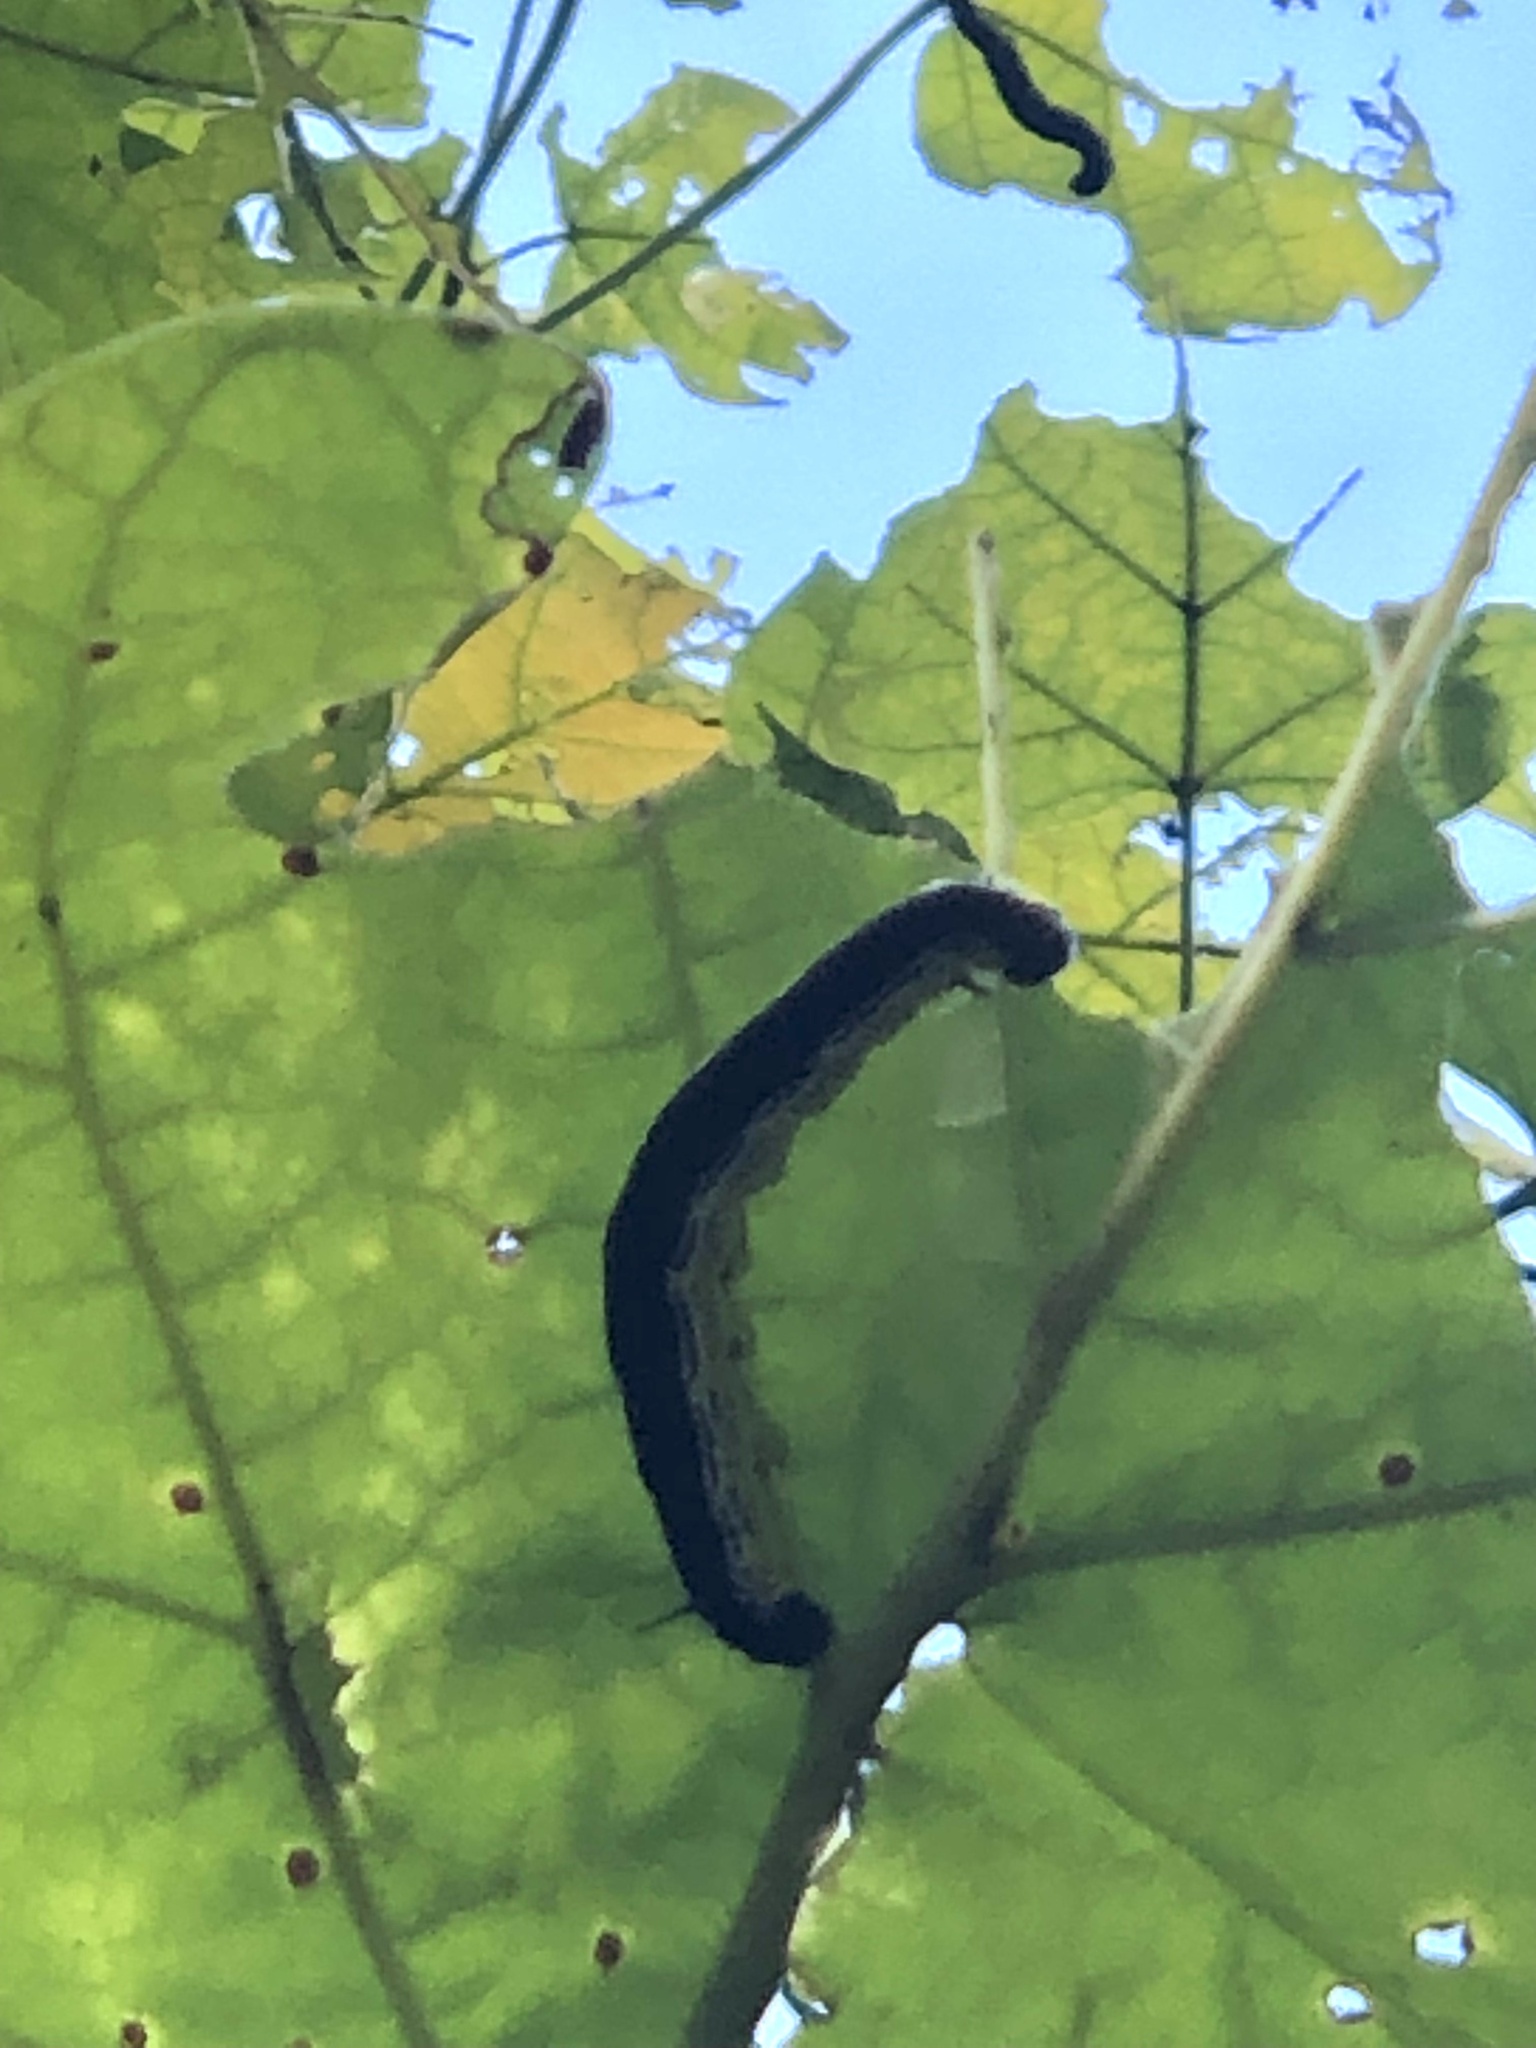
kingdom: Animalia
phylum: Arthropoda
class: Insecta
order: Lepidoptera
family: Sphingidae
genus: Ceratomia
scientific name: Ceratomia catalpae
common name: Catalpa hornworm
